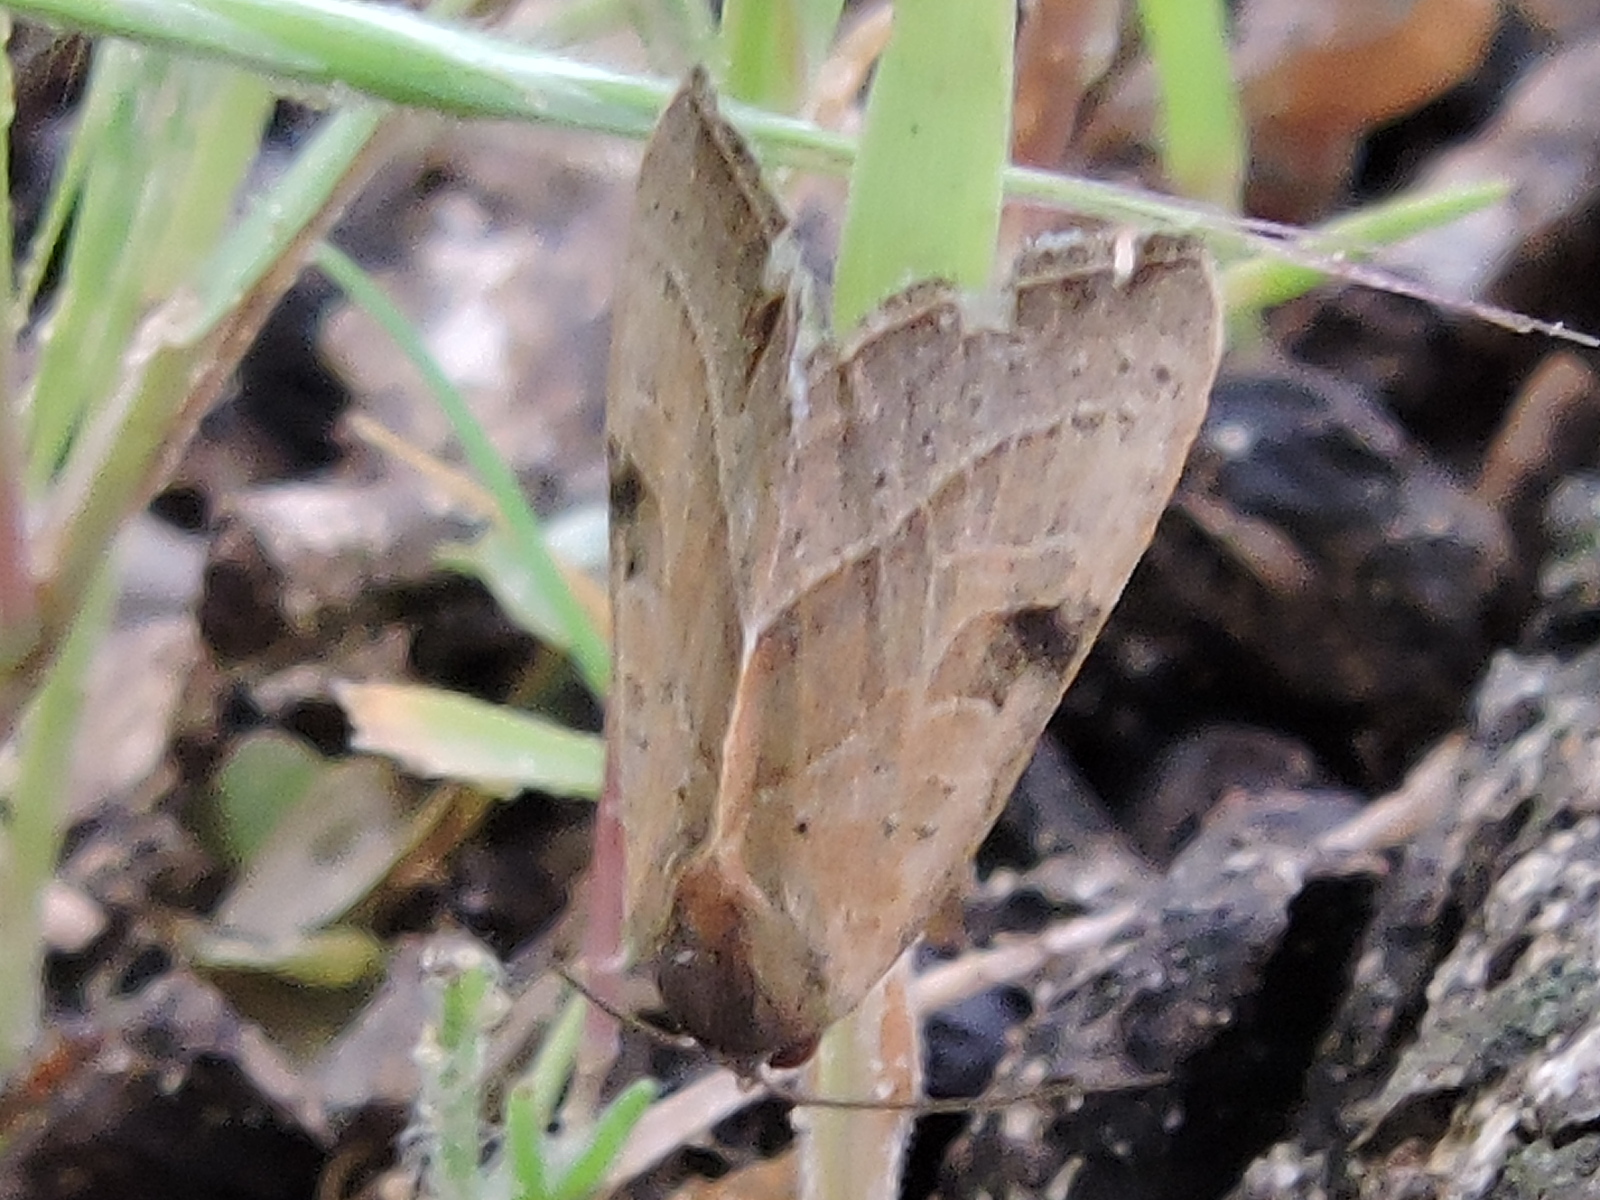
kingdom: Animalia
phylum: Arthropoda
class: Insecta
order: Lepidoptera
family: Noctuidae
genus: Galgula
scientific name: Galgula partita
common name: Wedgeling
